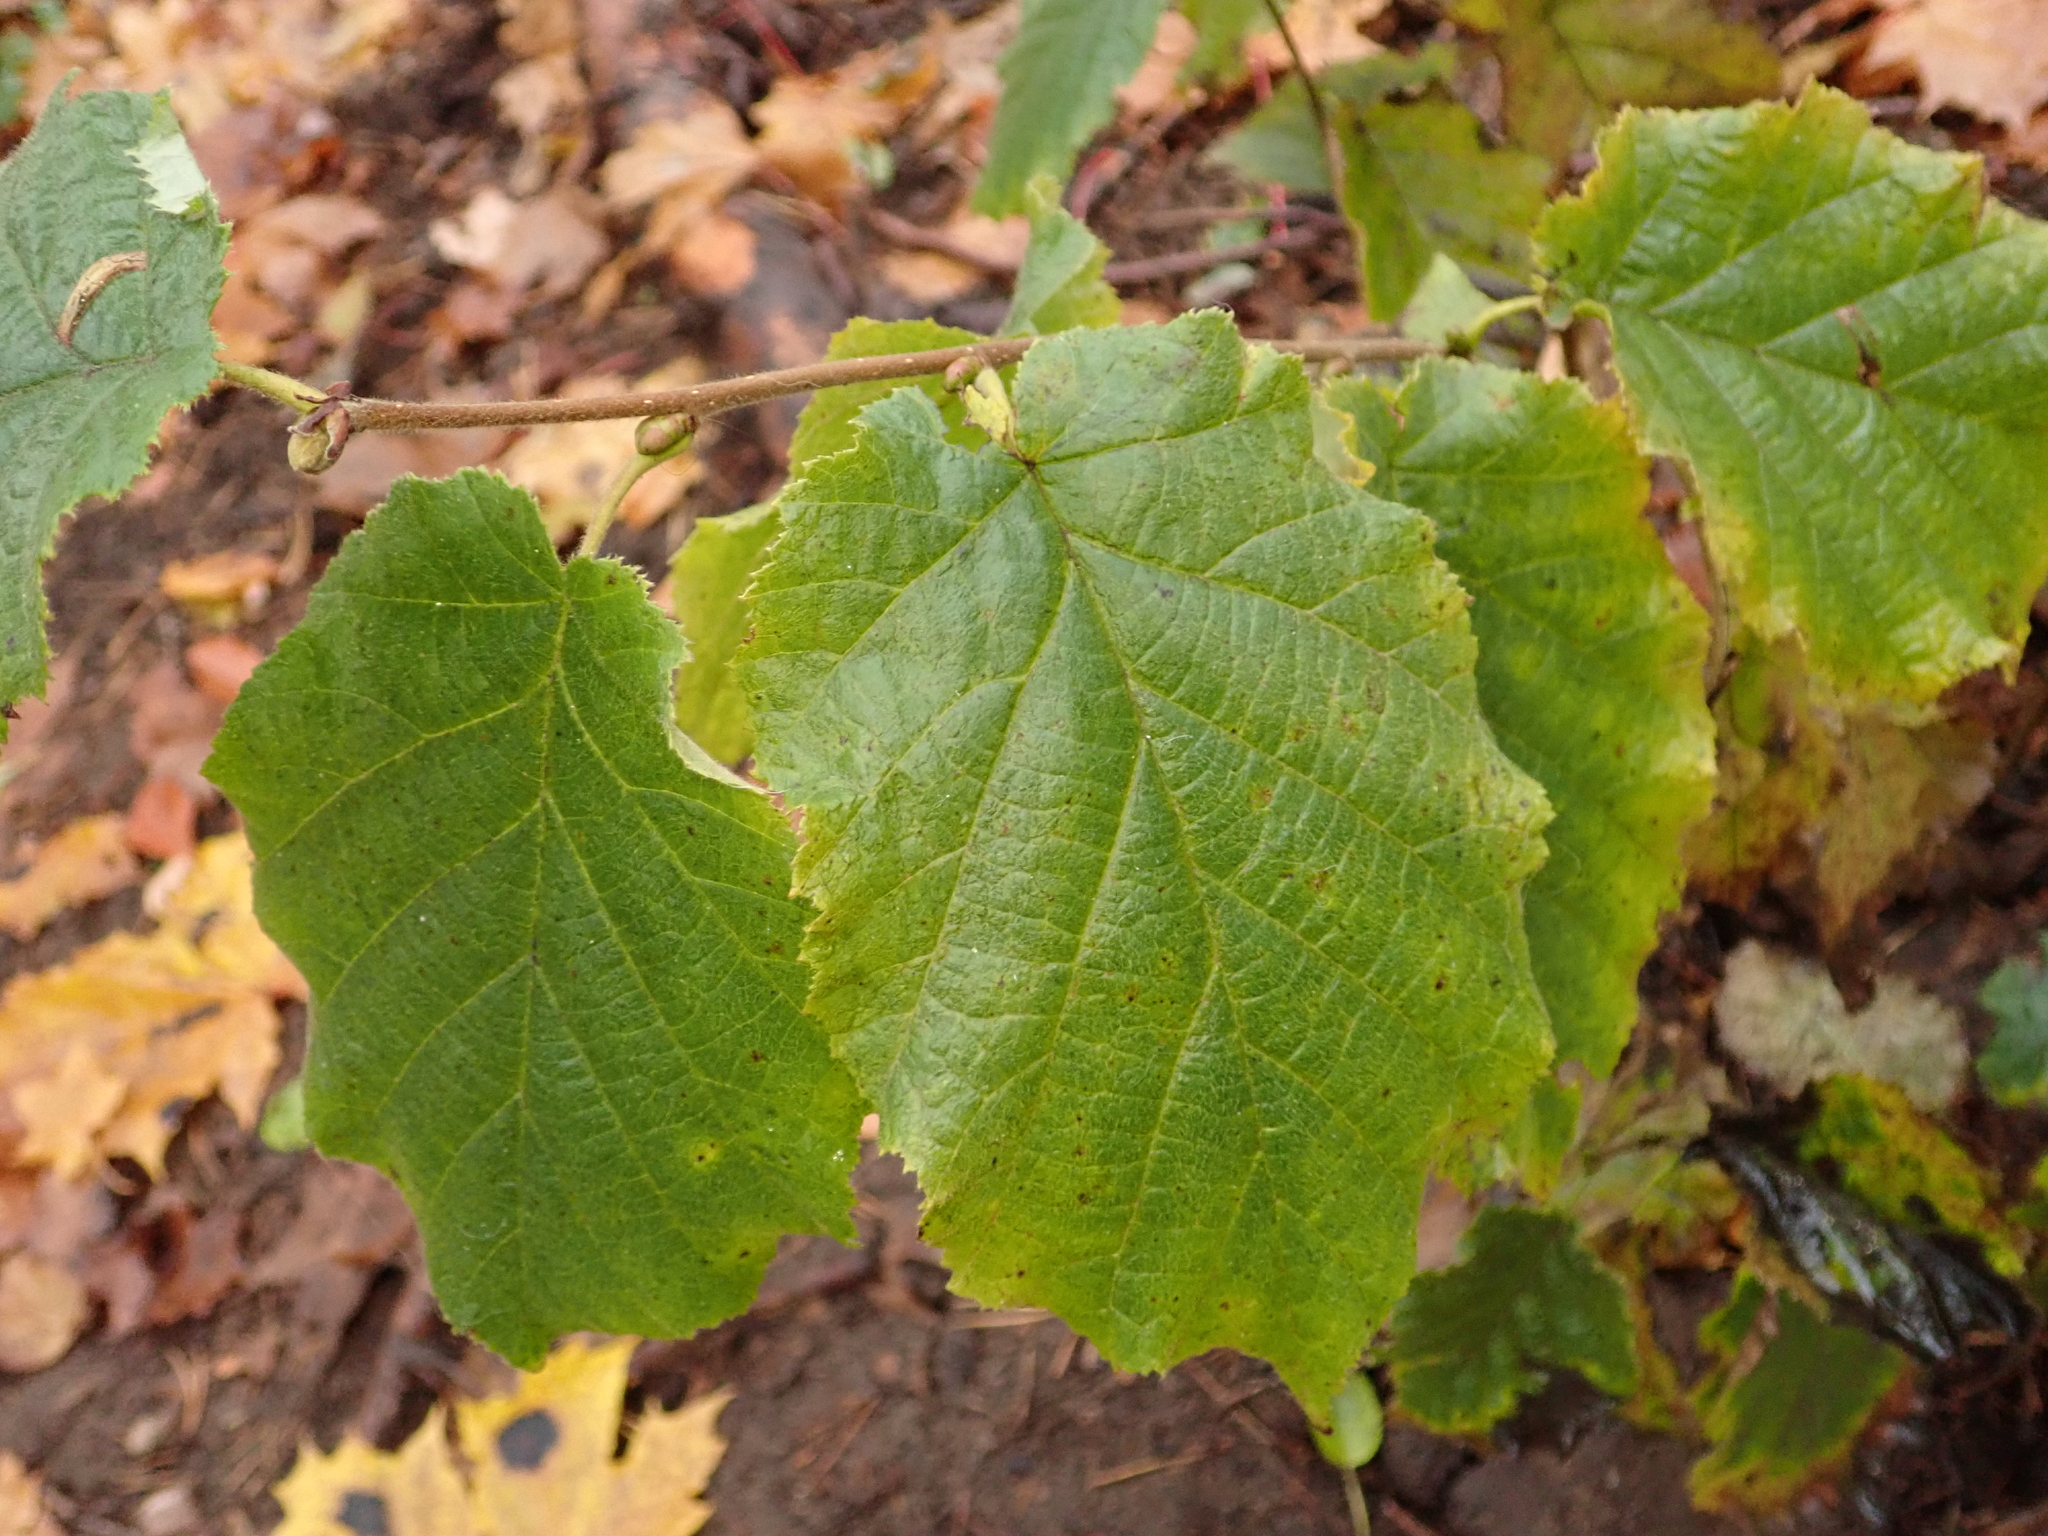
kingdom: Plantae
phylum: Tracheophyta
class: Magnoliopsida
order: Fagales
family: Betulaceae
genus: Corylus
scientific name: Corylus avellana
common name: European hazel
